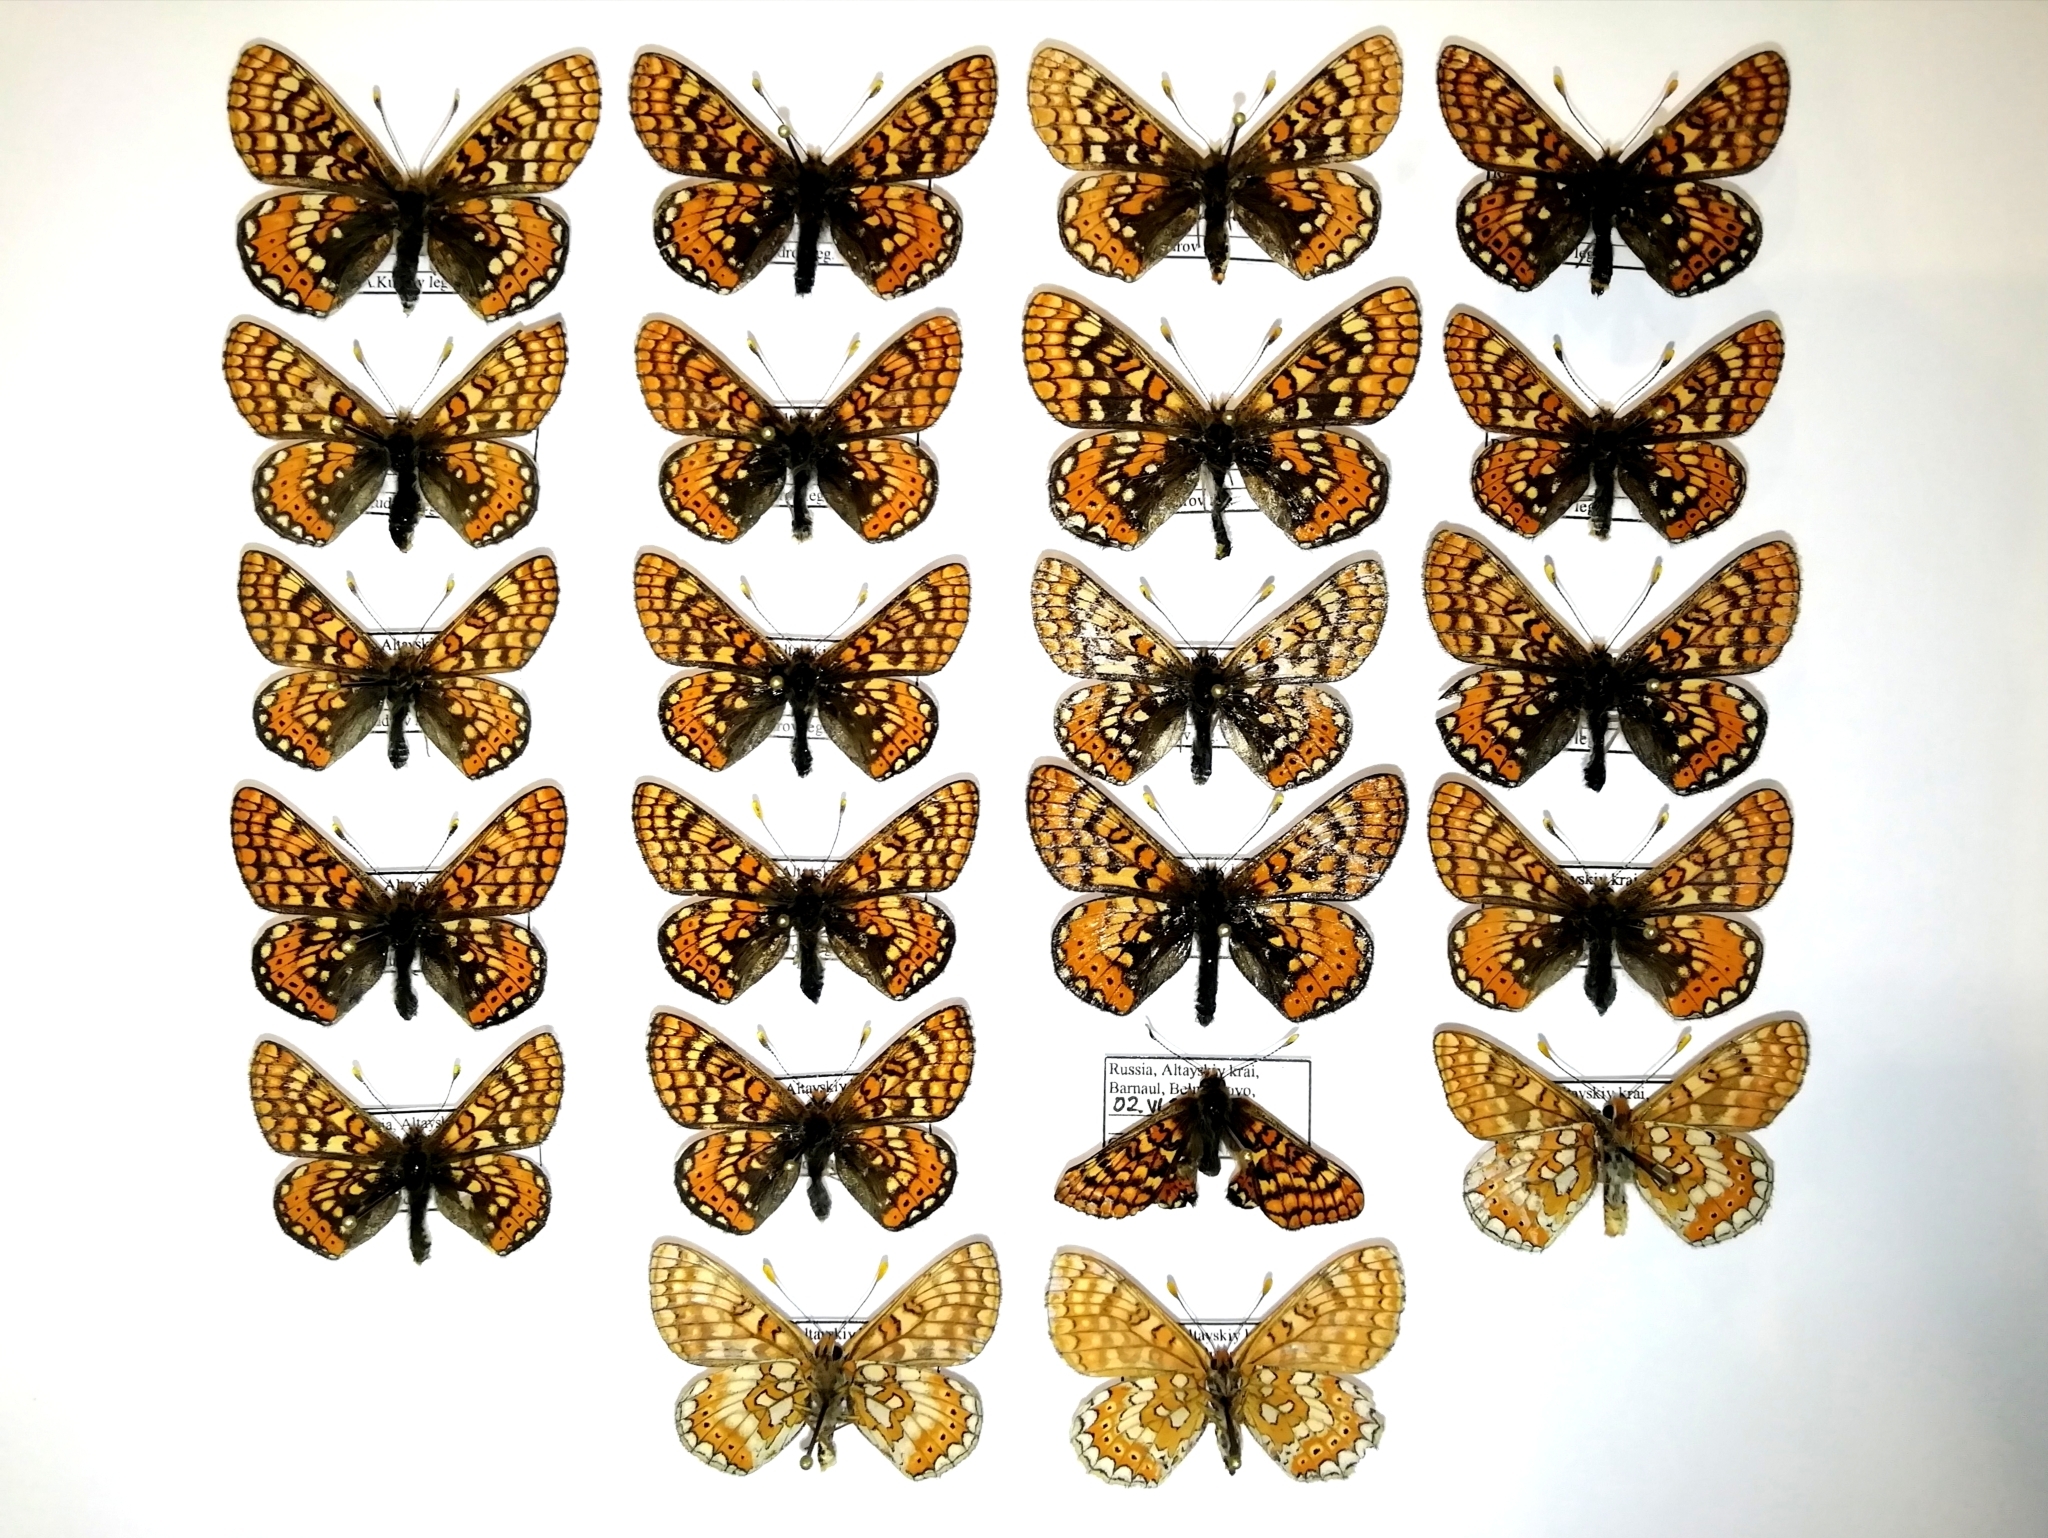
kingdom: Animalia
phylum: Arthropoda
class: Insecta
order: Lepidoptera
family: Nymphalidae
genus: Euphydryas
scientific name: Euphydryas aurinia
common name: Marsh fritillary
